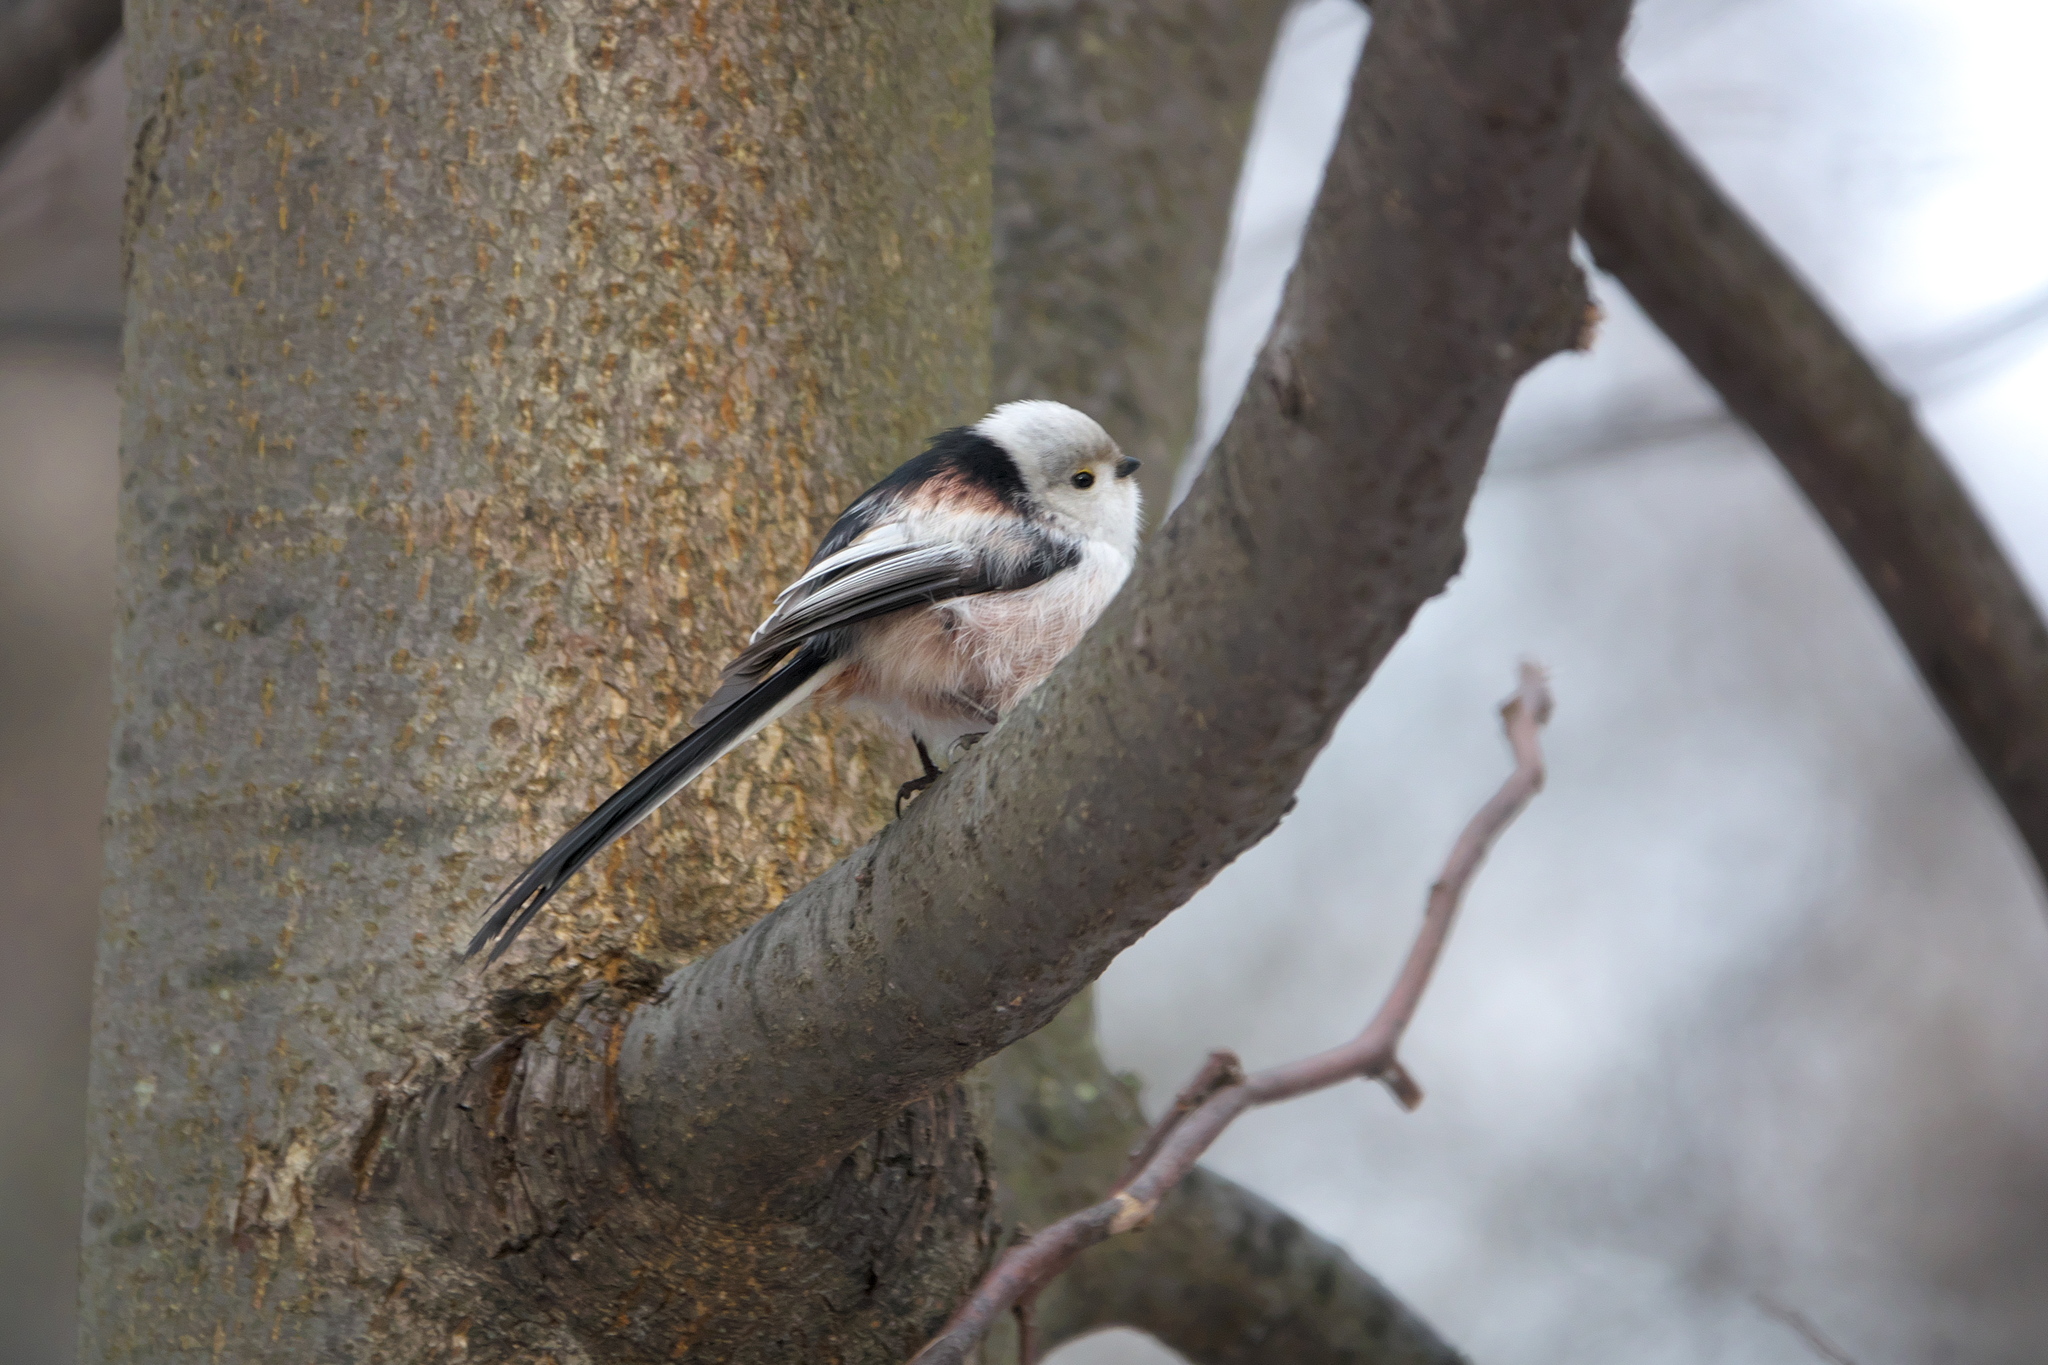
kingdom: Animalia
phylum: Chordata
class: Aves
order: Passeriformes
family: Aegithalidae
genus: Aegithalos
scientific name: Aegithalos caudatus
